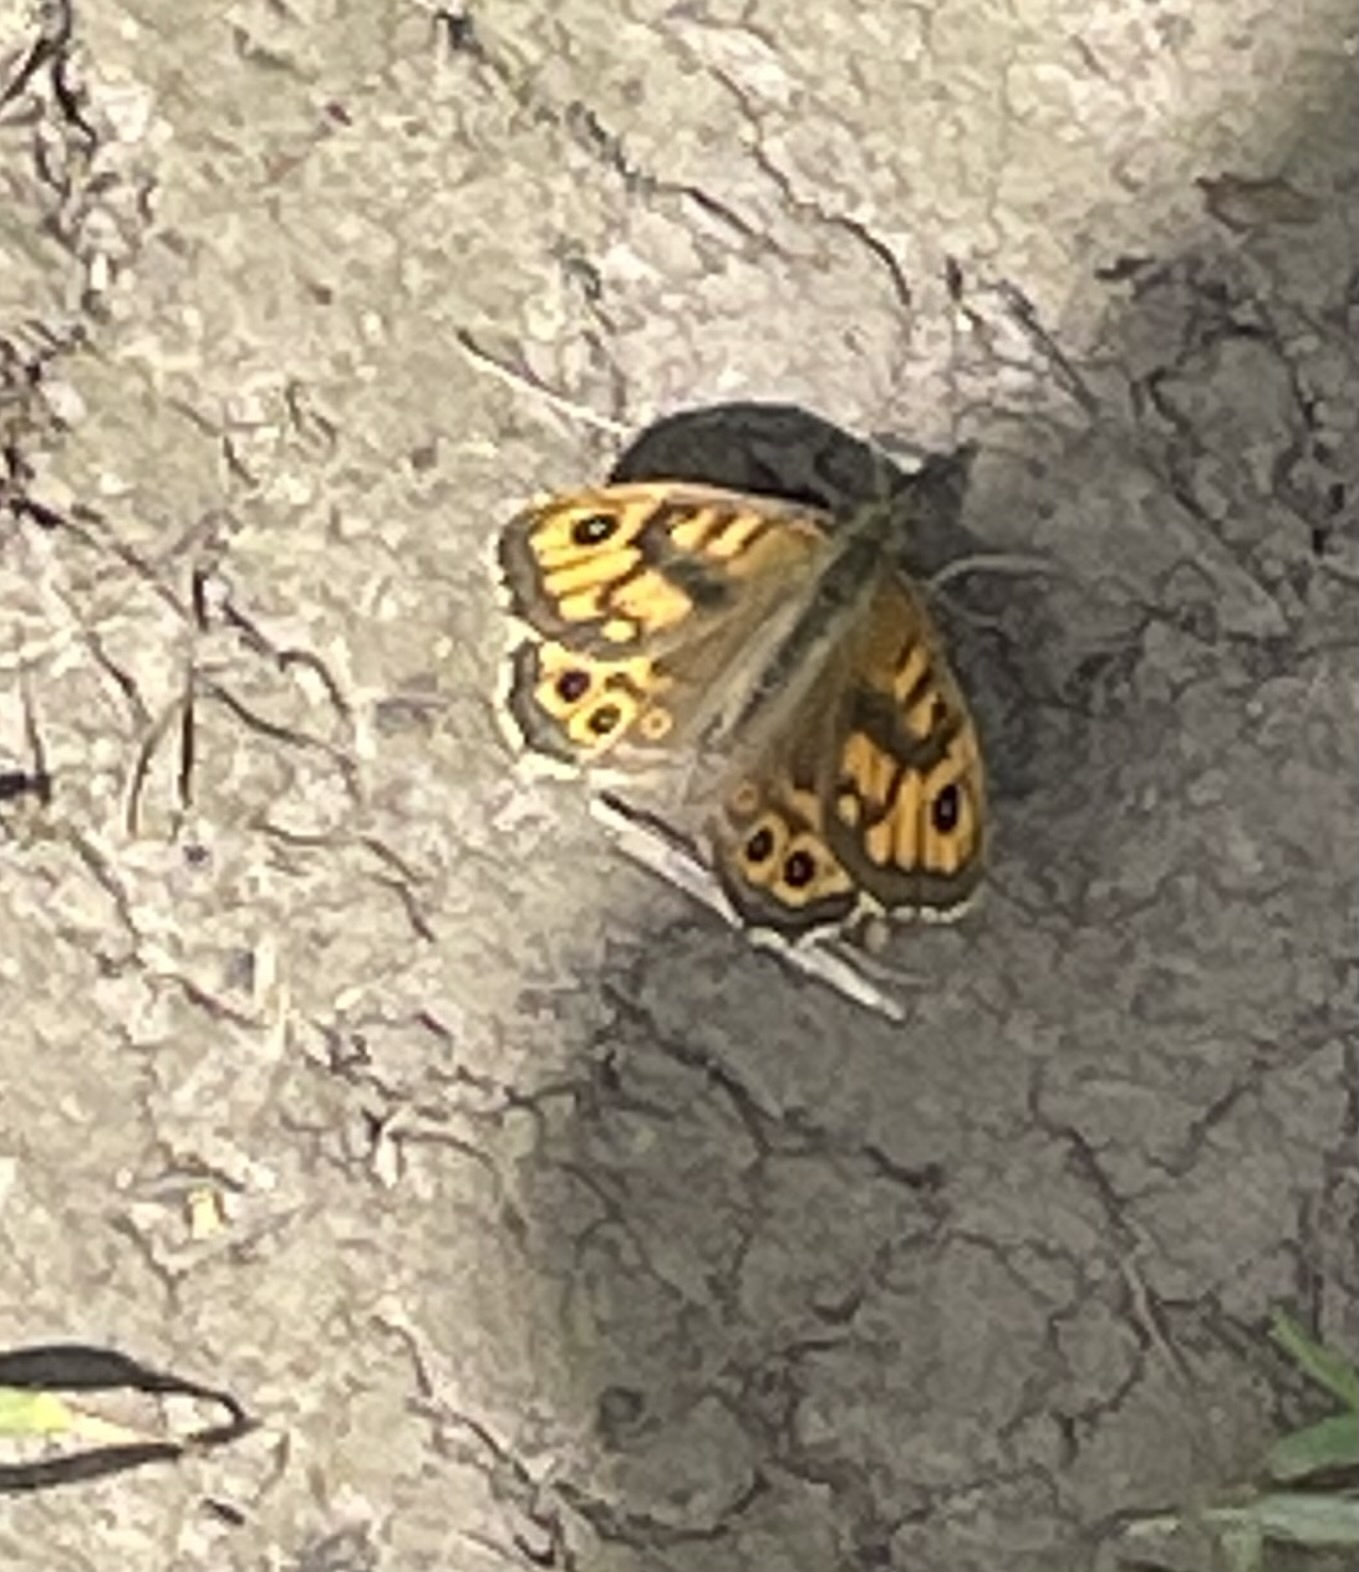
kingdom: Animalia
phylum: Arthropoda
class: Insecta
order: Lepidoptera
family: Nymphalidae
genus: Pararge
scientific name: Pararge Lasiommata megera
